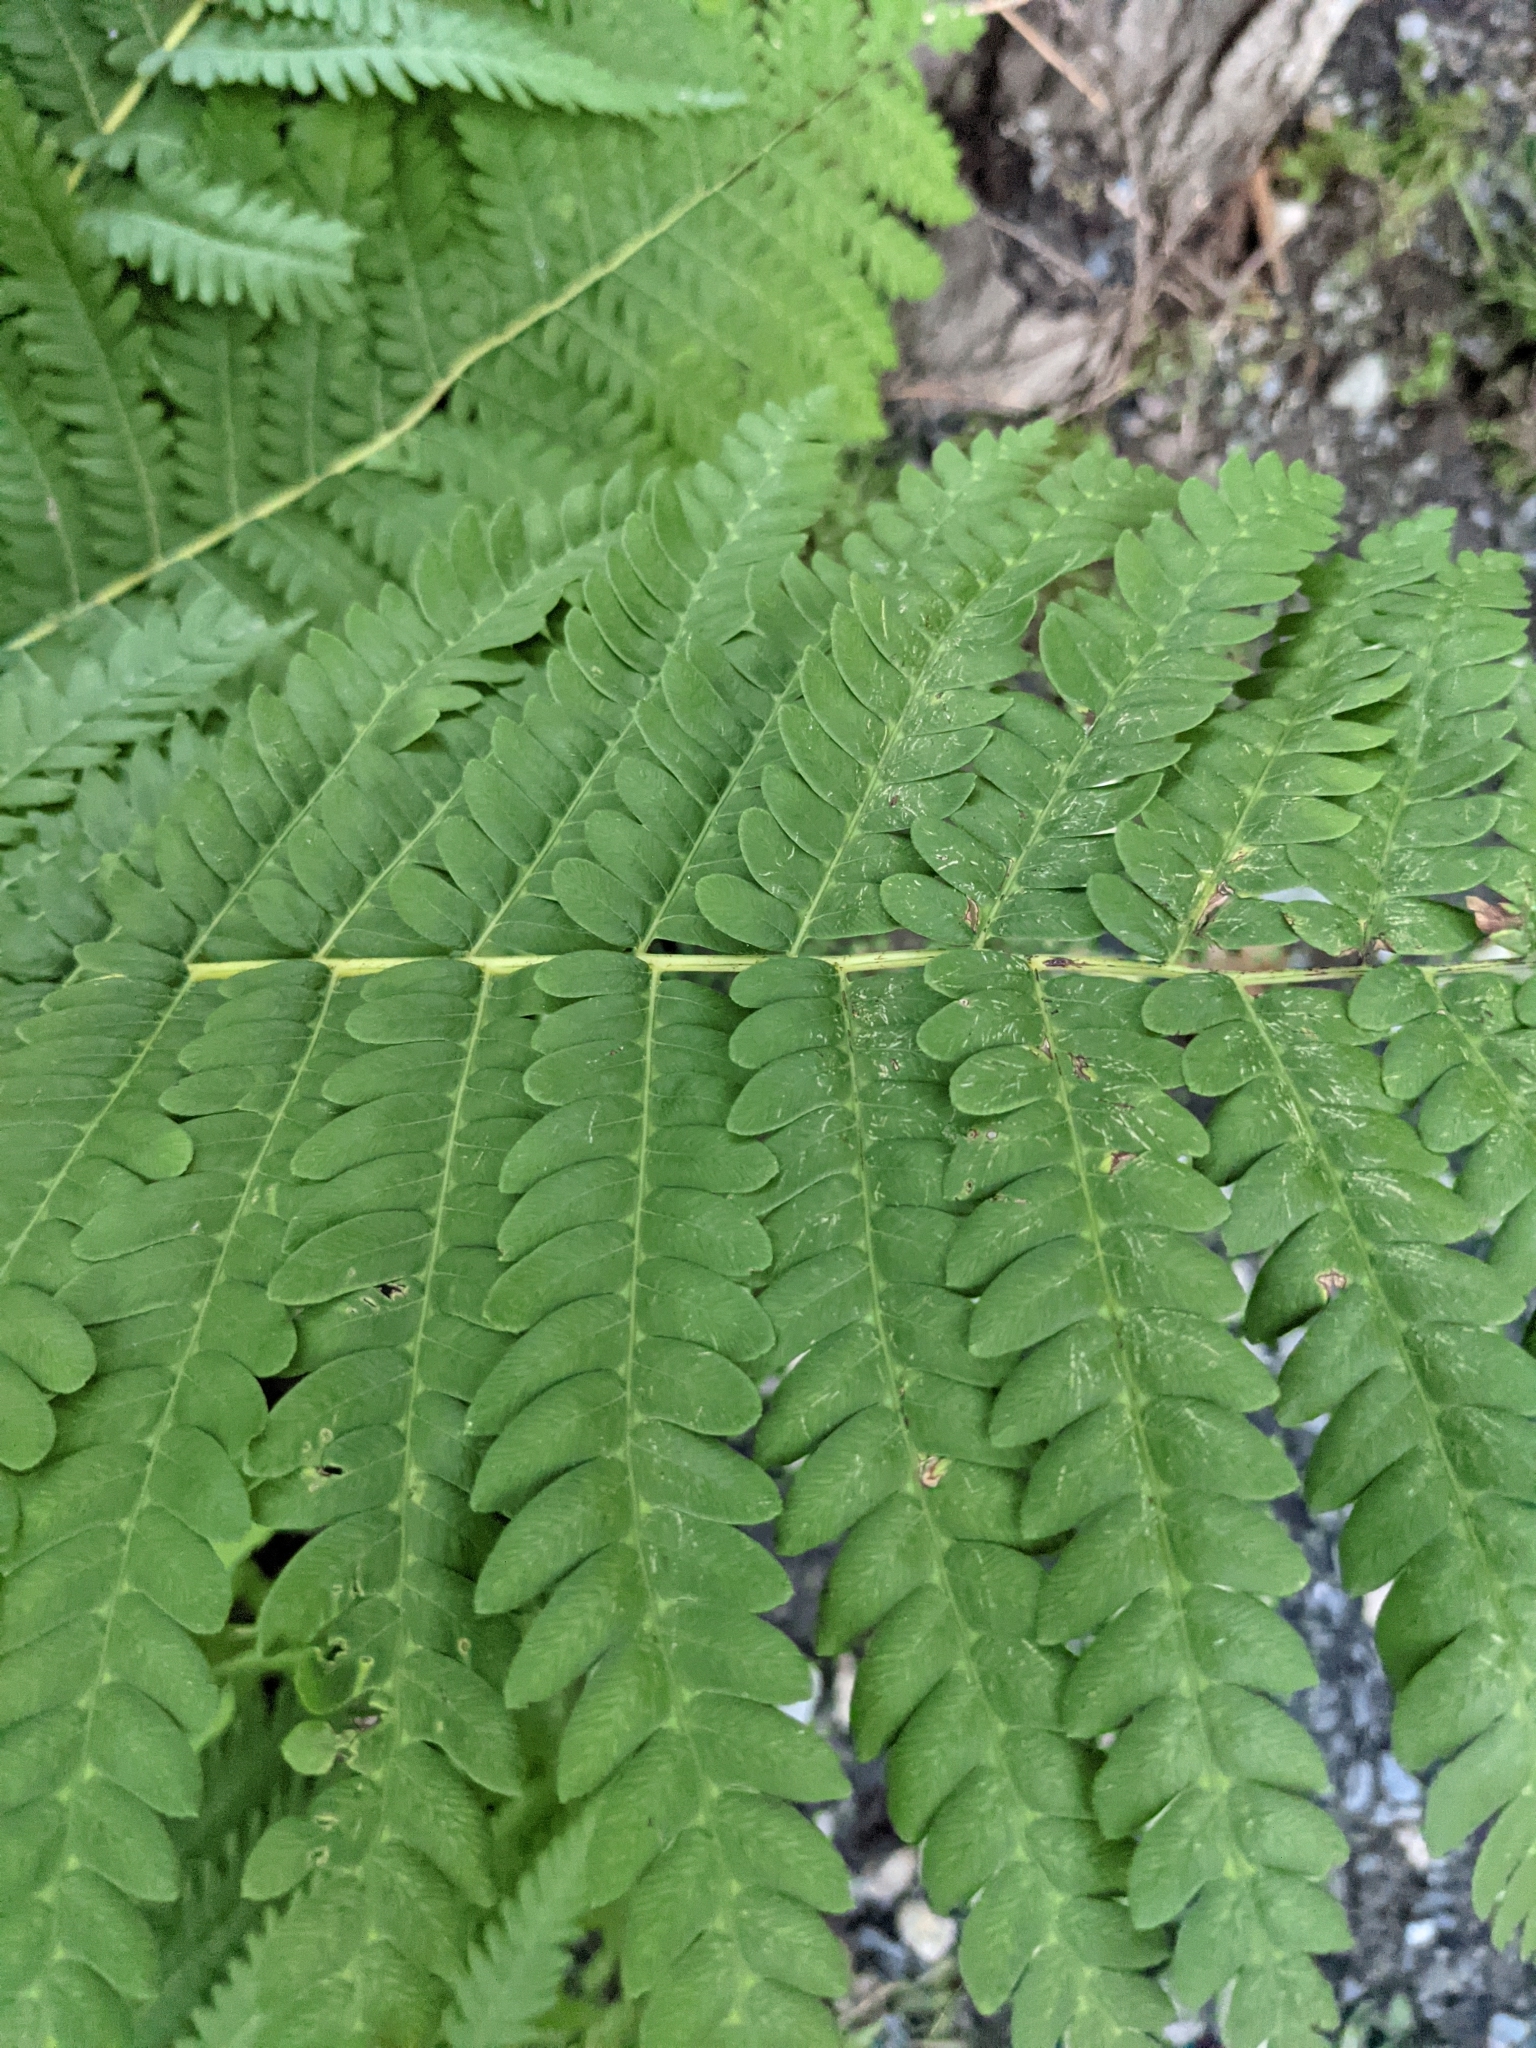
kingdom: Plantae
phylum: Tracheophyta
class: Polypodiopsida
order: Osmundales
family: Osmundaceae
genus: Claytosmunda
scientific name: Claytosmunda claytoniana
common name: Clayton's fern
